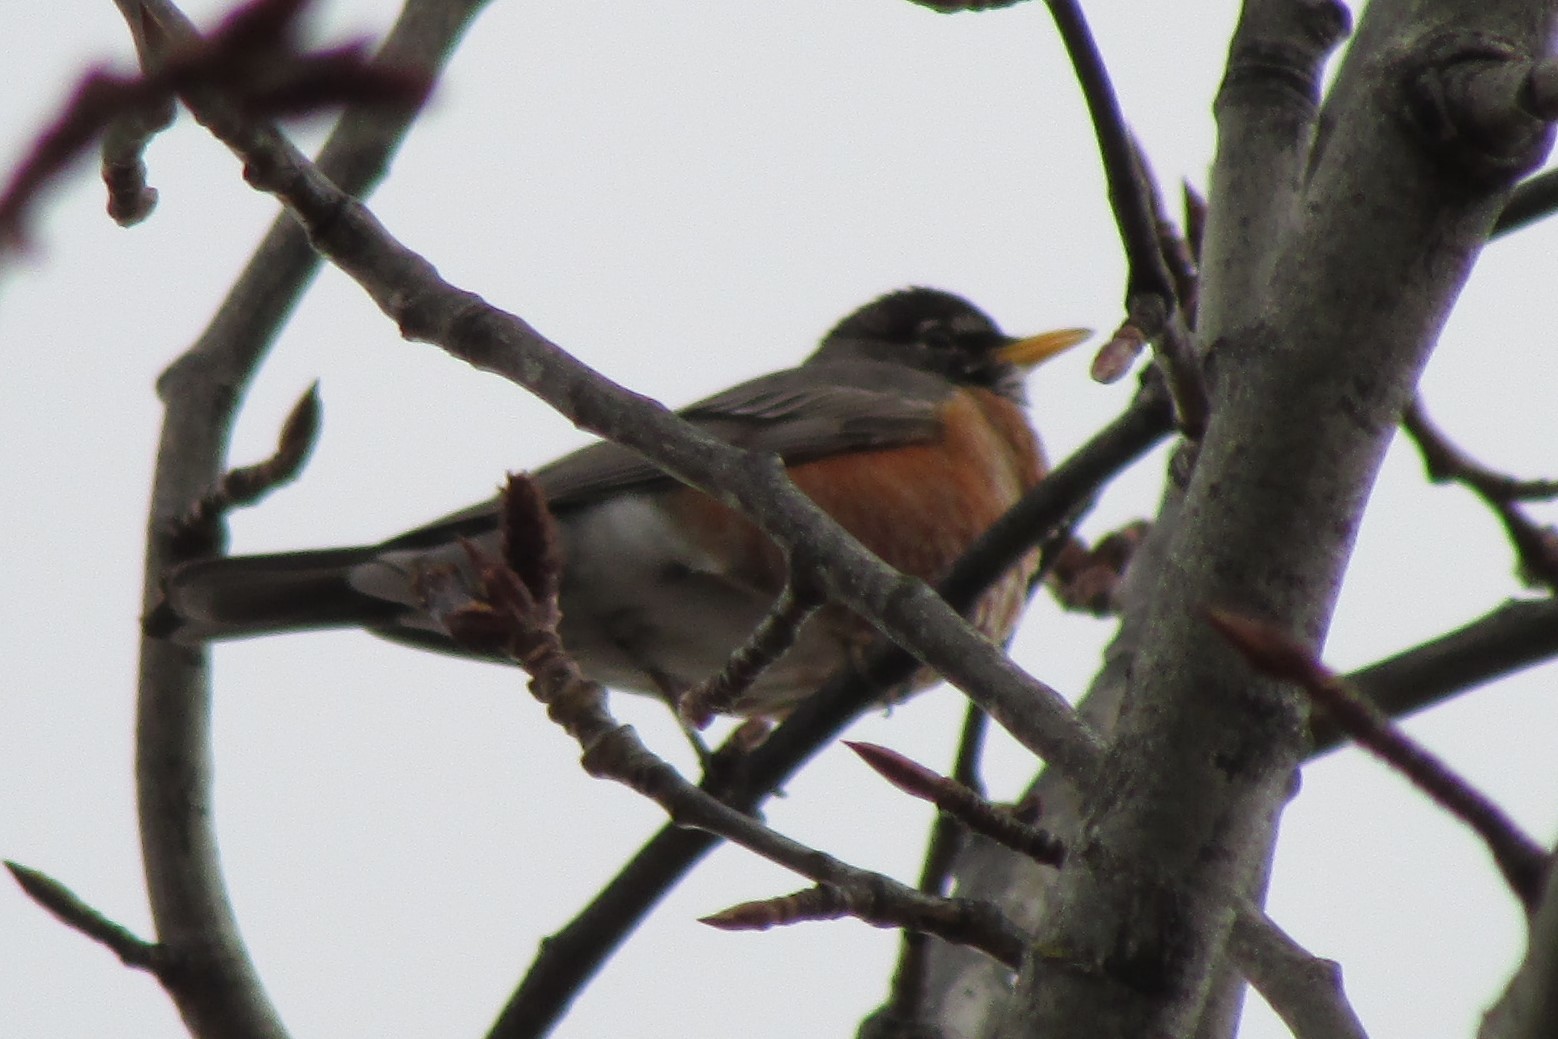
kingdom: Animalia
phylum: Chordata
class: Aves
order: Passeriformes
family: Turdidae
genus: Turdus
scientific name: Turdus migratorius
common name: American robin
